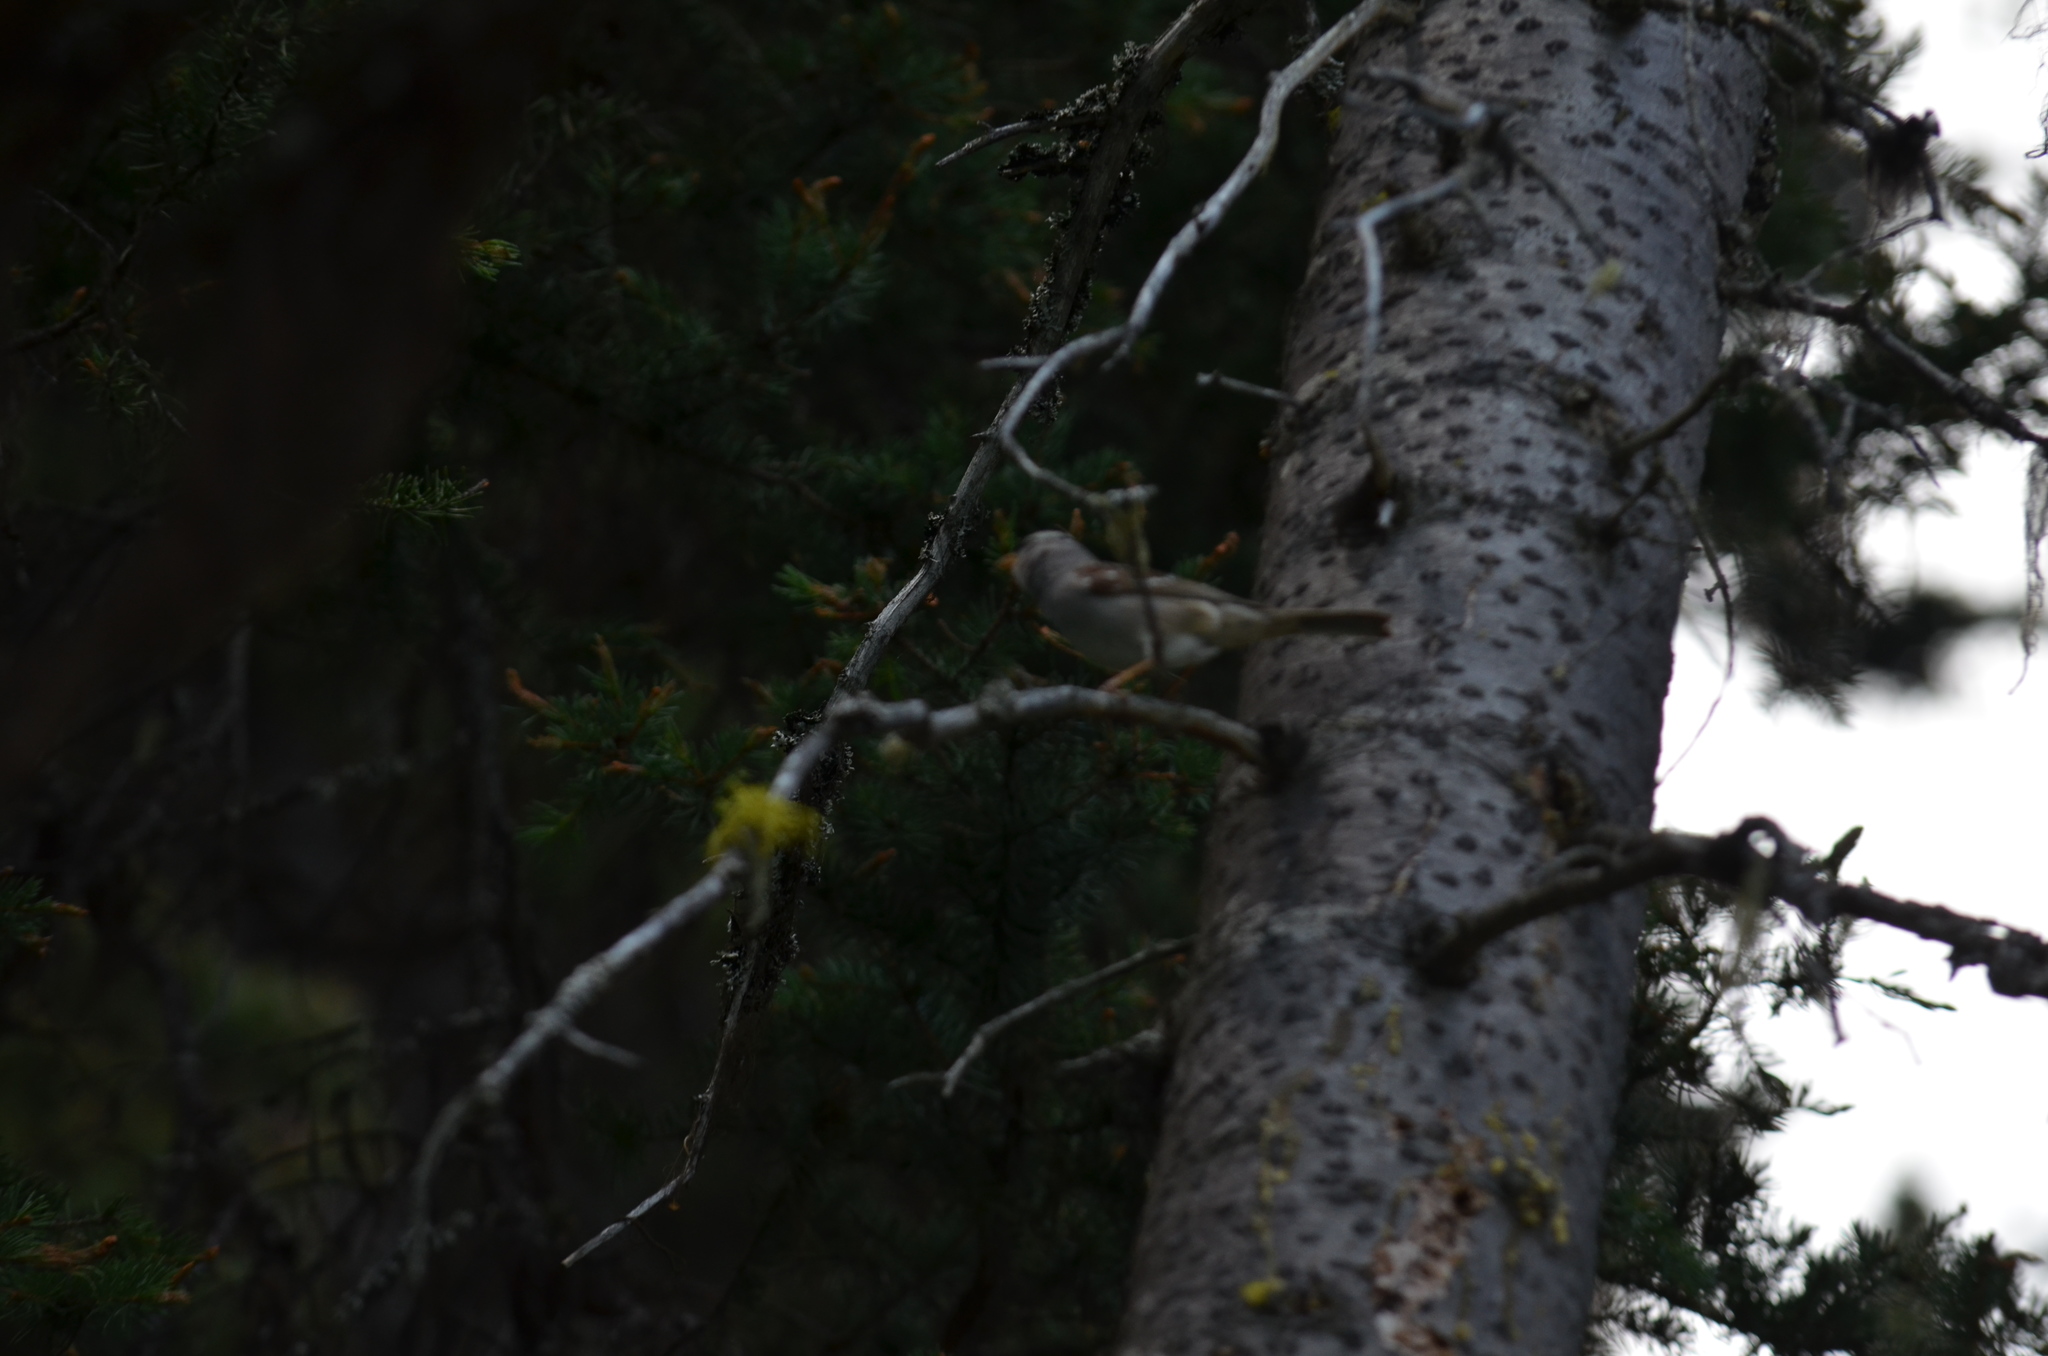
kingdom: Animalia
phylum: Chordata
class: Aves
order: Passeriformes
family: Passerellidae
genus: Zonotrichia
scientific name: Zonotrichia leucophrys
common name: White-crowned sparrow
